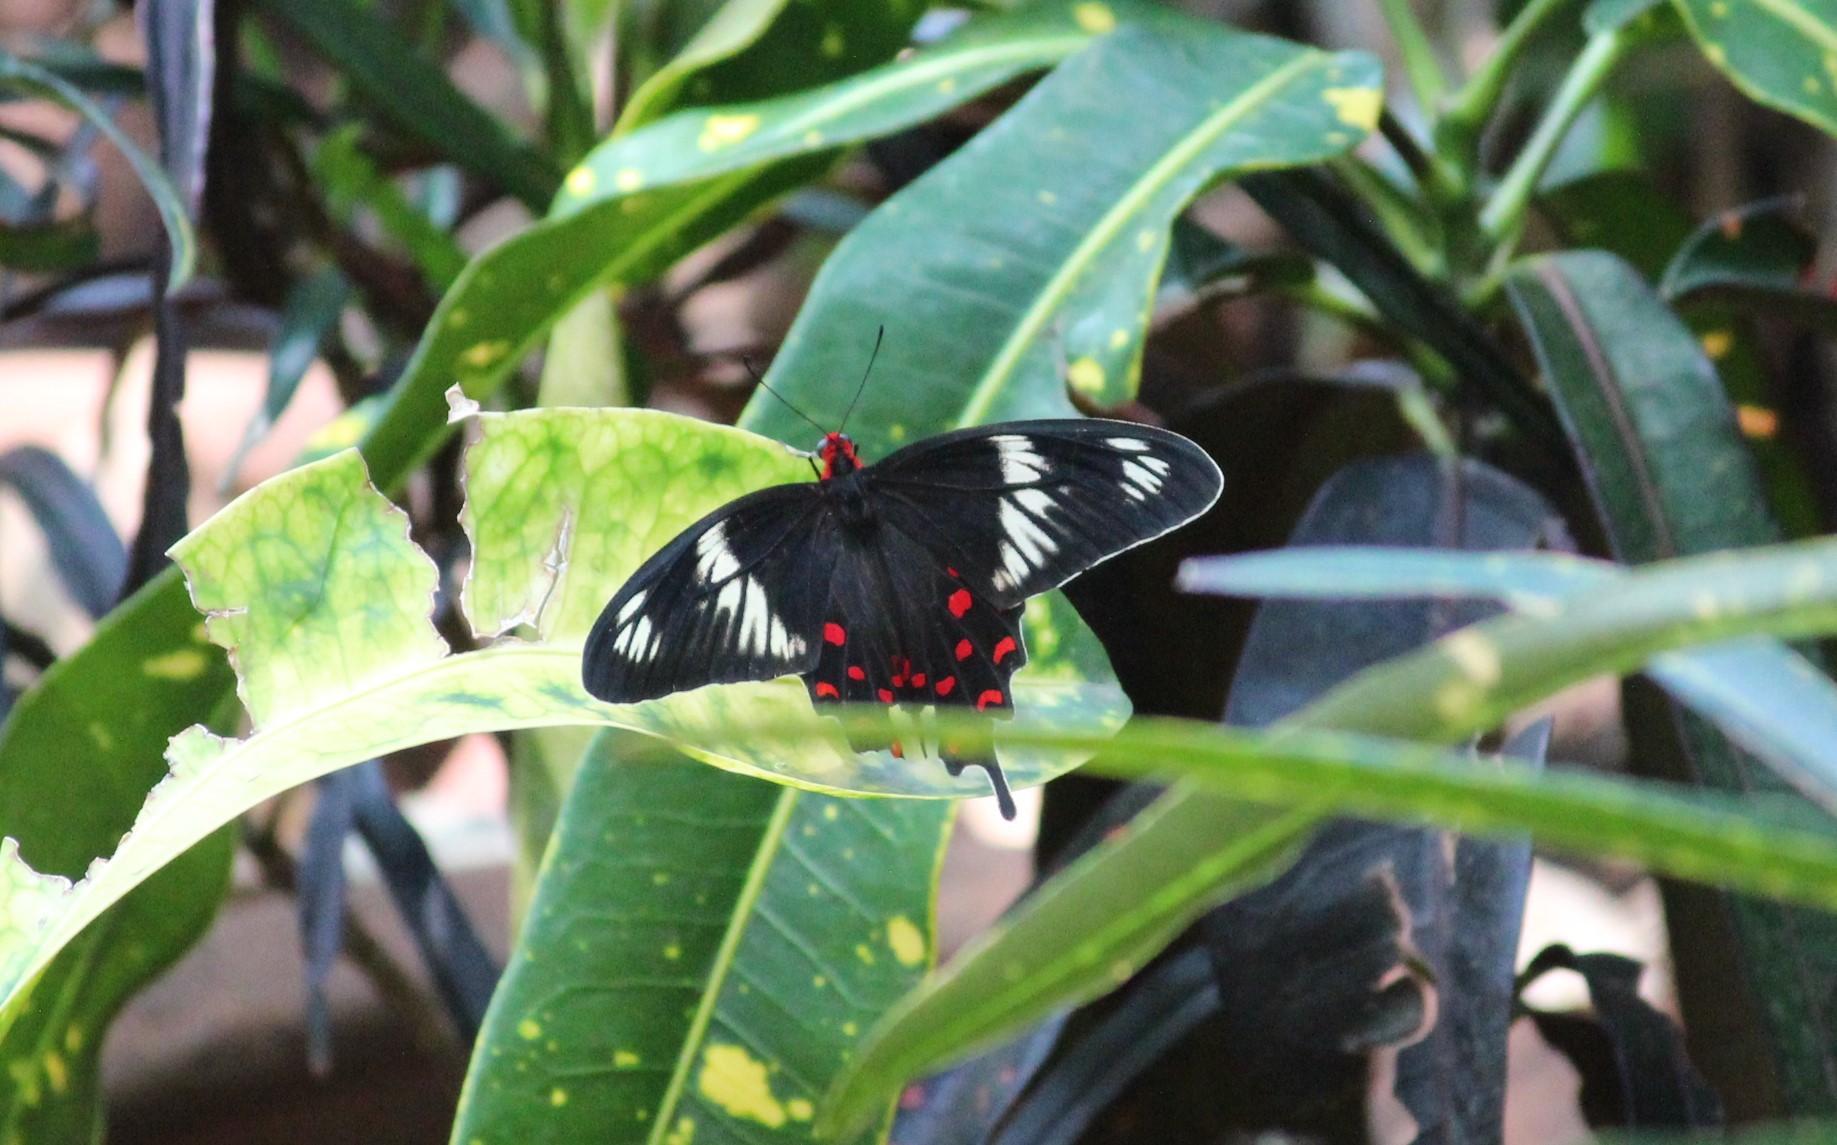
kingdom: Animalia
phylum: Arthropoda
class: Insecta
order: Lepidoptera
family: Papilionidae
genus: Pachliopta
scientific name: Pachliopta hector
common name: Crimson rose
